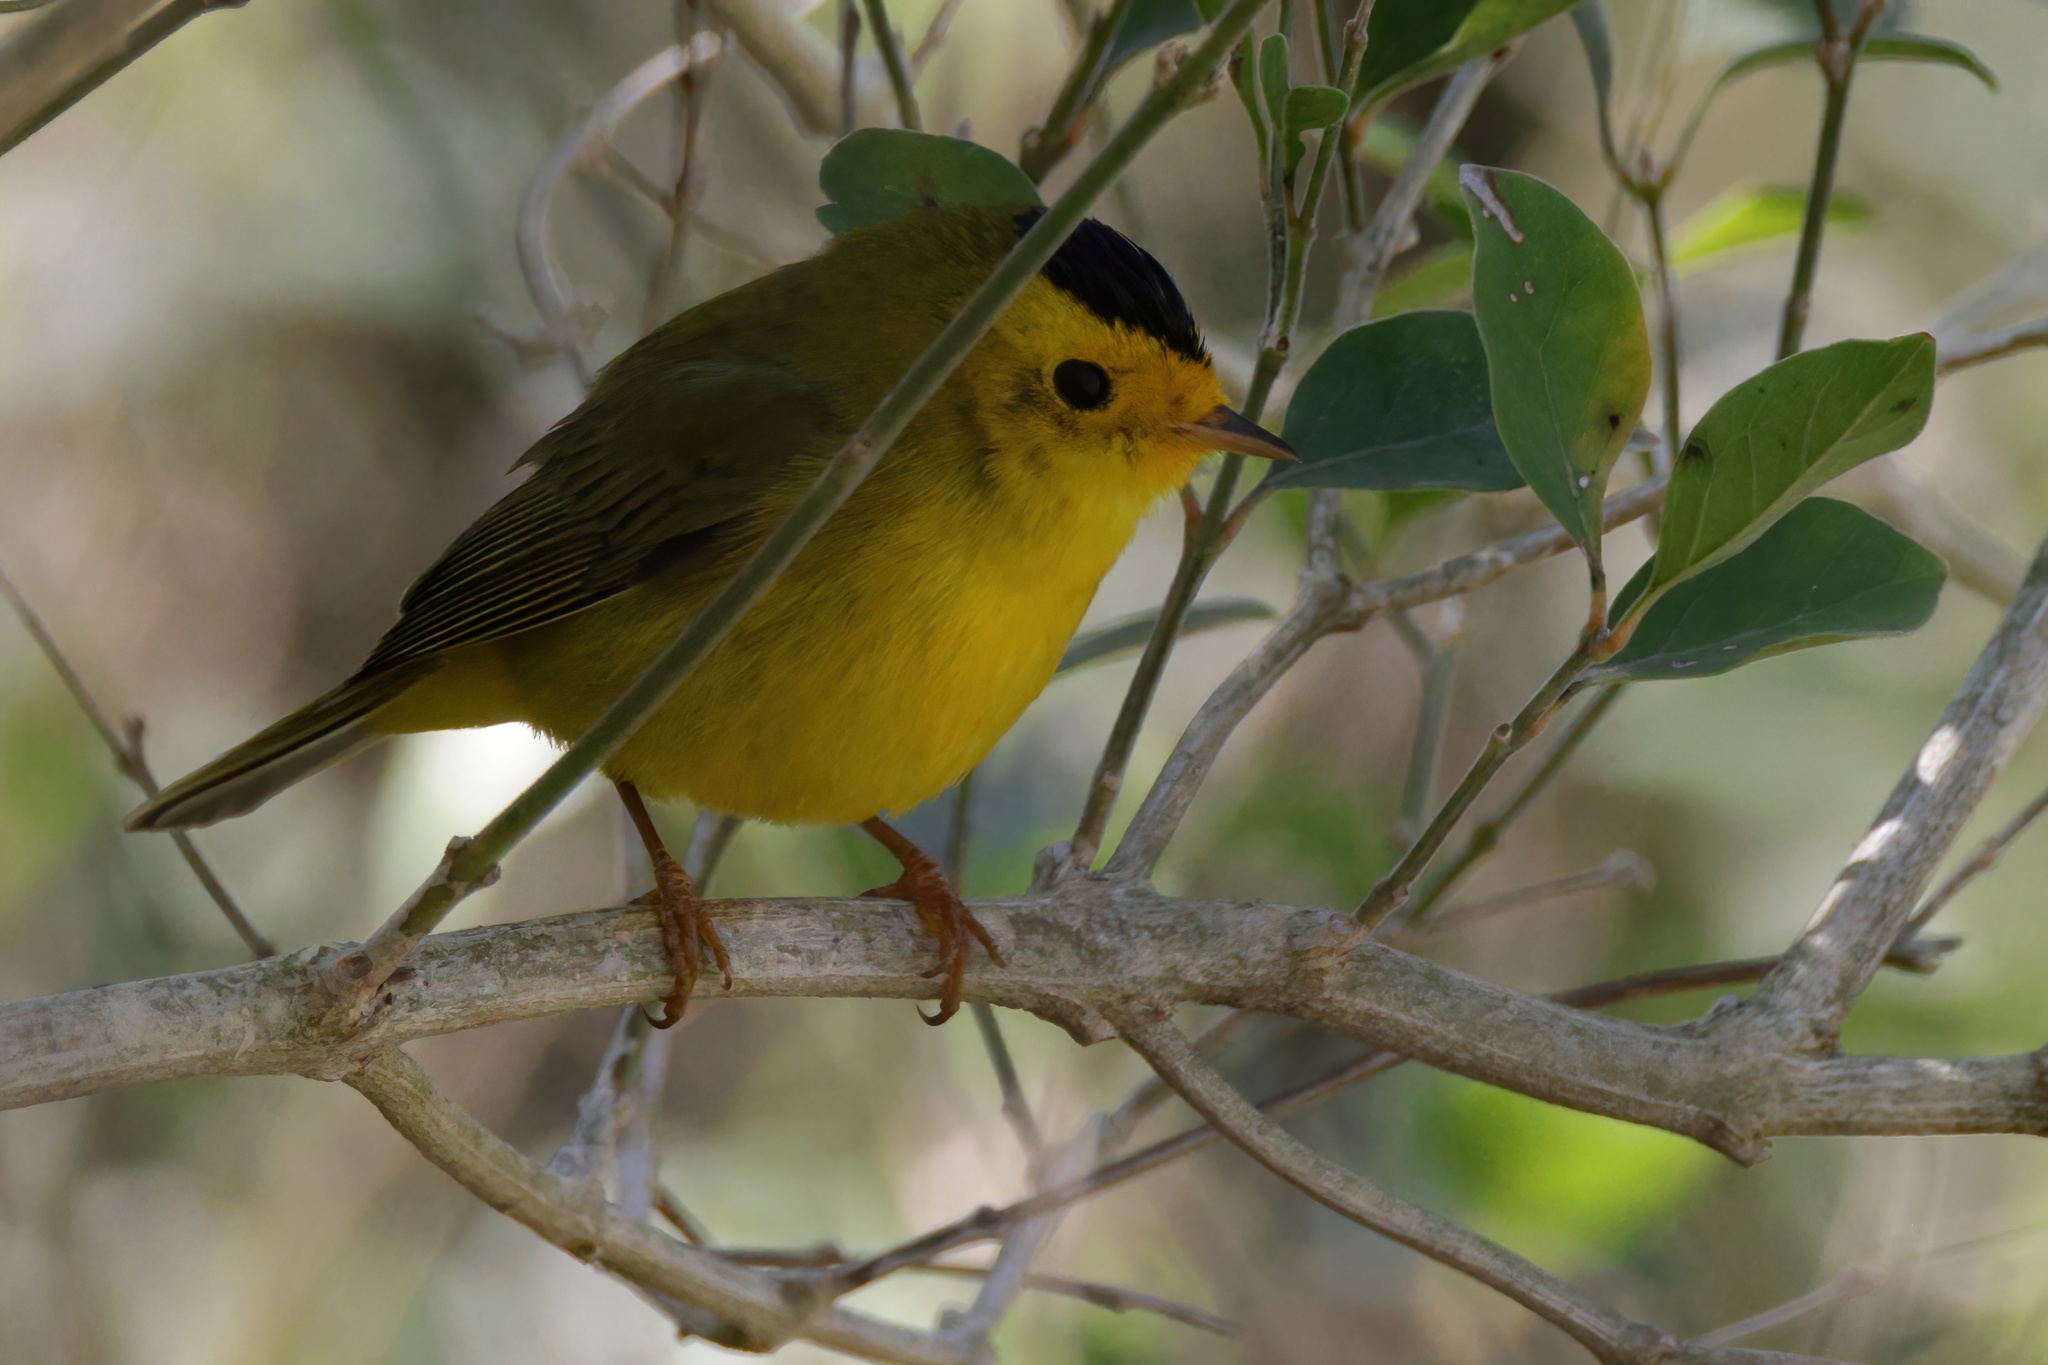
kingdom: Animalia
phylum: Chordata
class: Aves
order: Passeriformes
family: Parulidae
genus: Cardellina
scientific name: Cardellina pusilla
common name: Wilson's warbler
